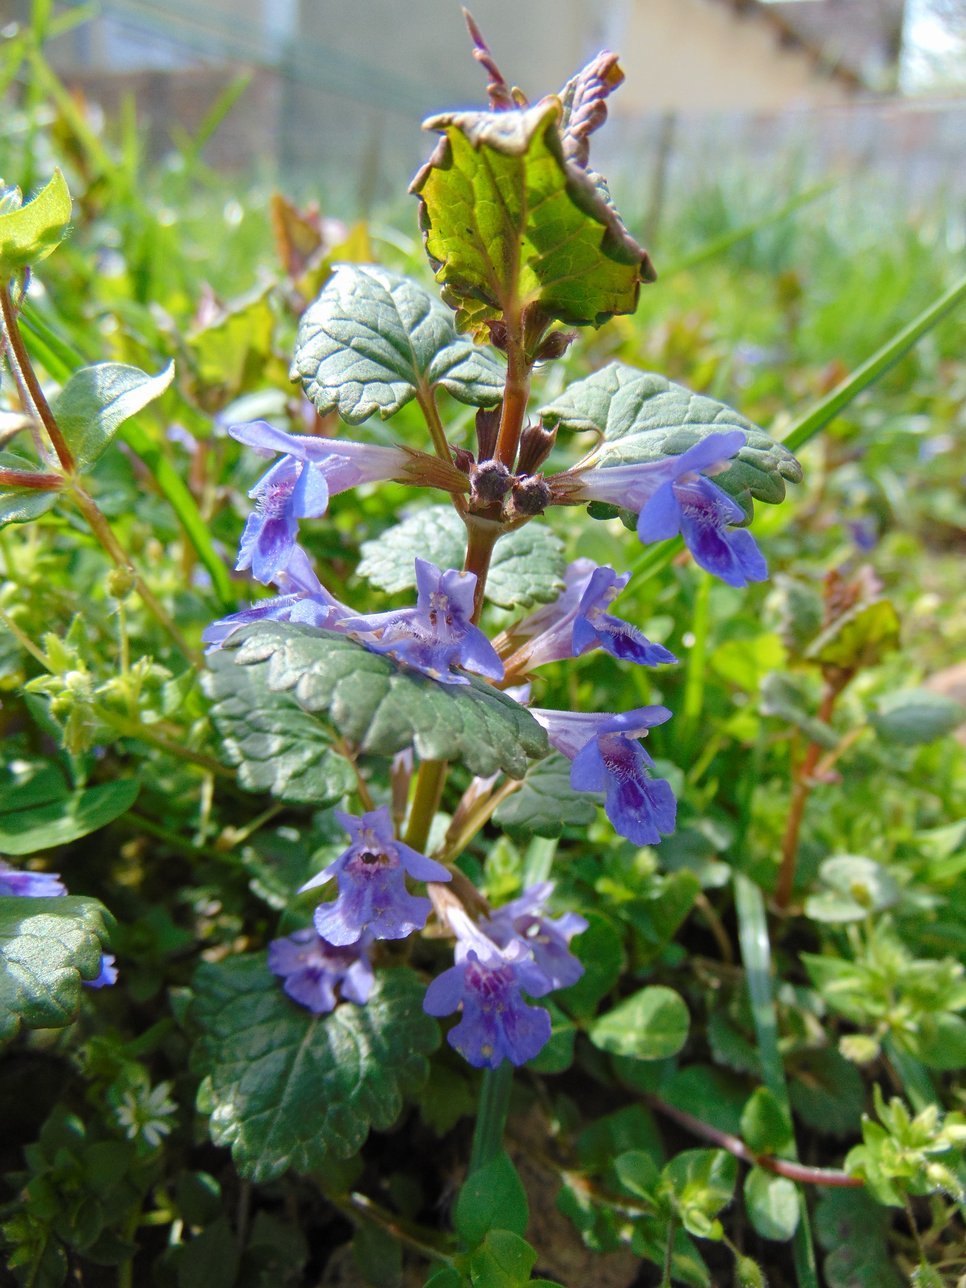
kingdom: Plantae
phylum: Tracheophyta
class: Magnoliopsida
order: Lamiales
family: Lamiaceae
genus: Glechoma
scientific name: Glechoma hederacea
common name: Ground ivy
